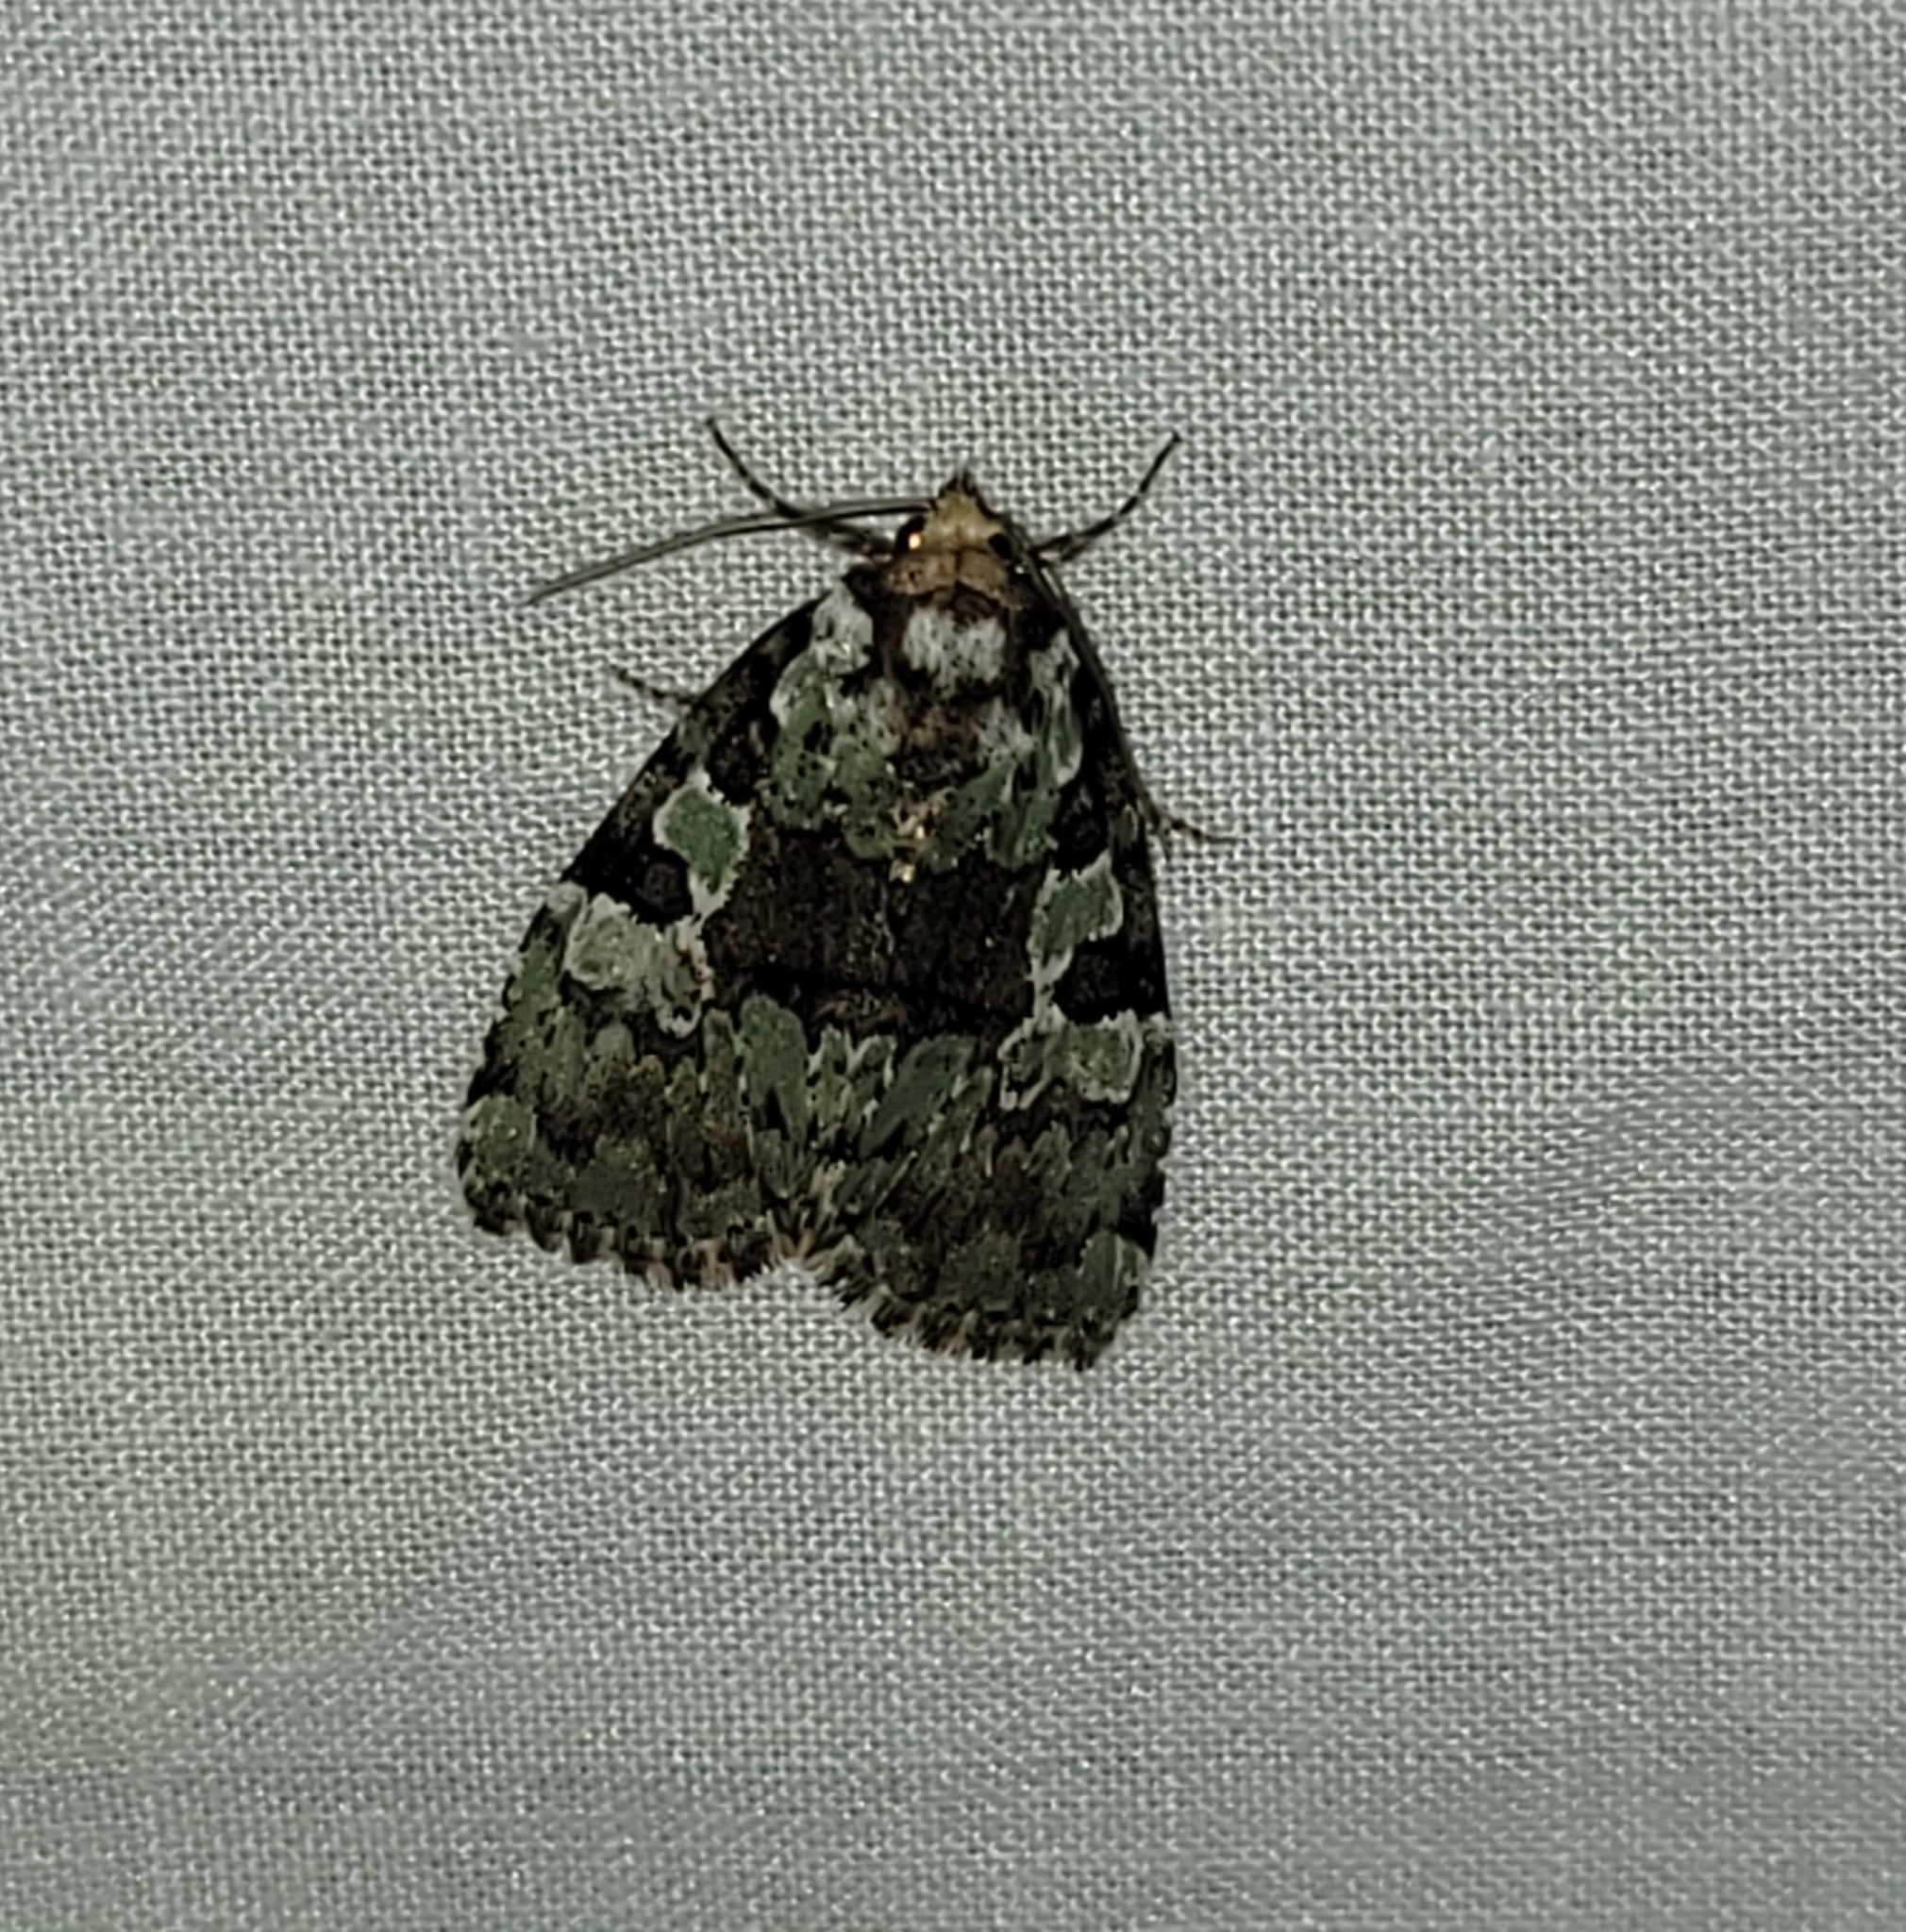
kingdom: Animalia
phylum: Arthropoda
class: Insecta
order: Lepidoptera
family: Noctuidae
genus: Leuconycta
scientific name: Leuconycta lepidula
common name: Marbled-green leuconycta moth
